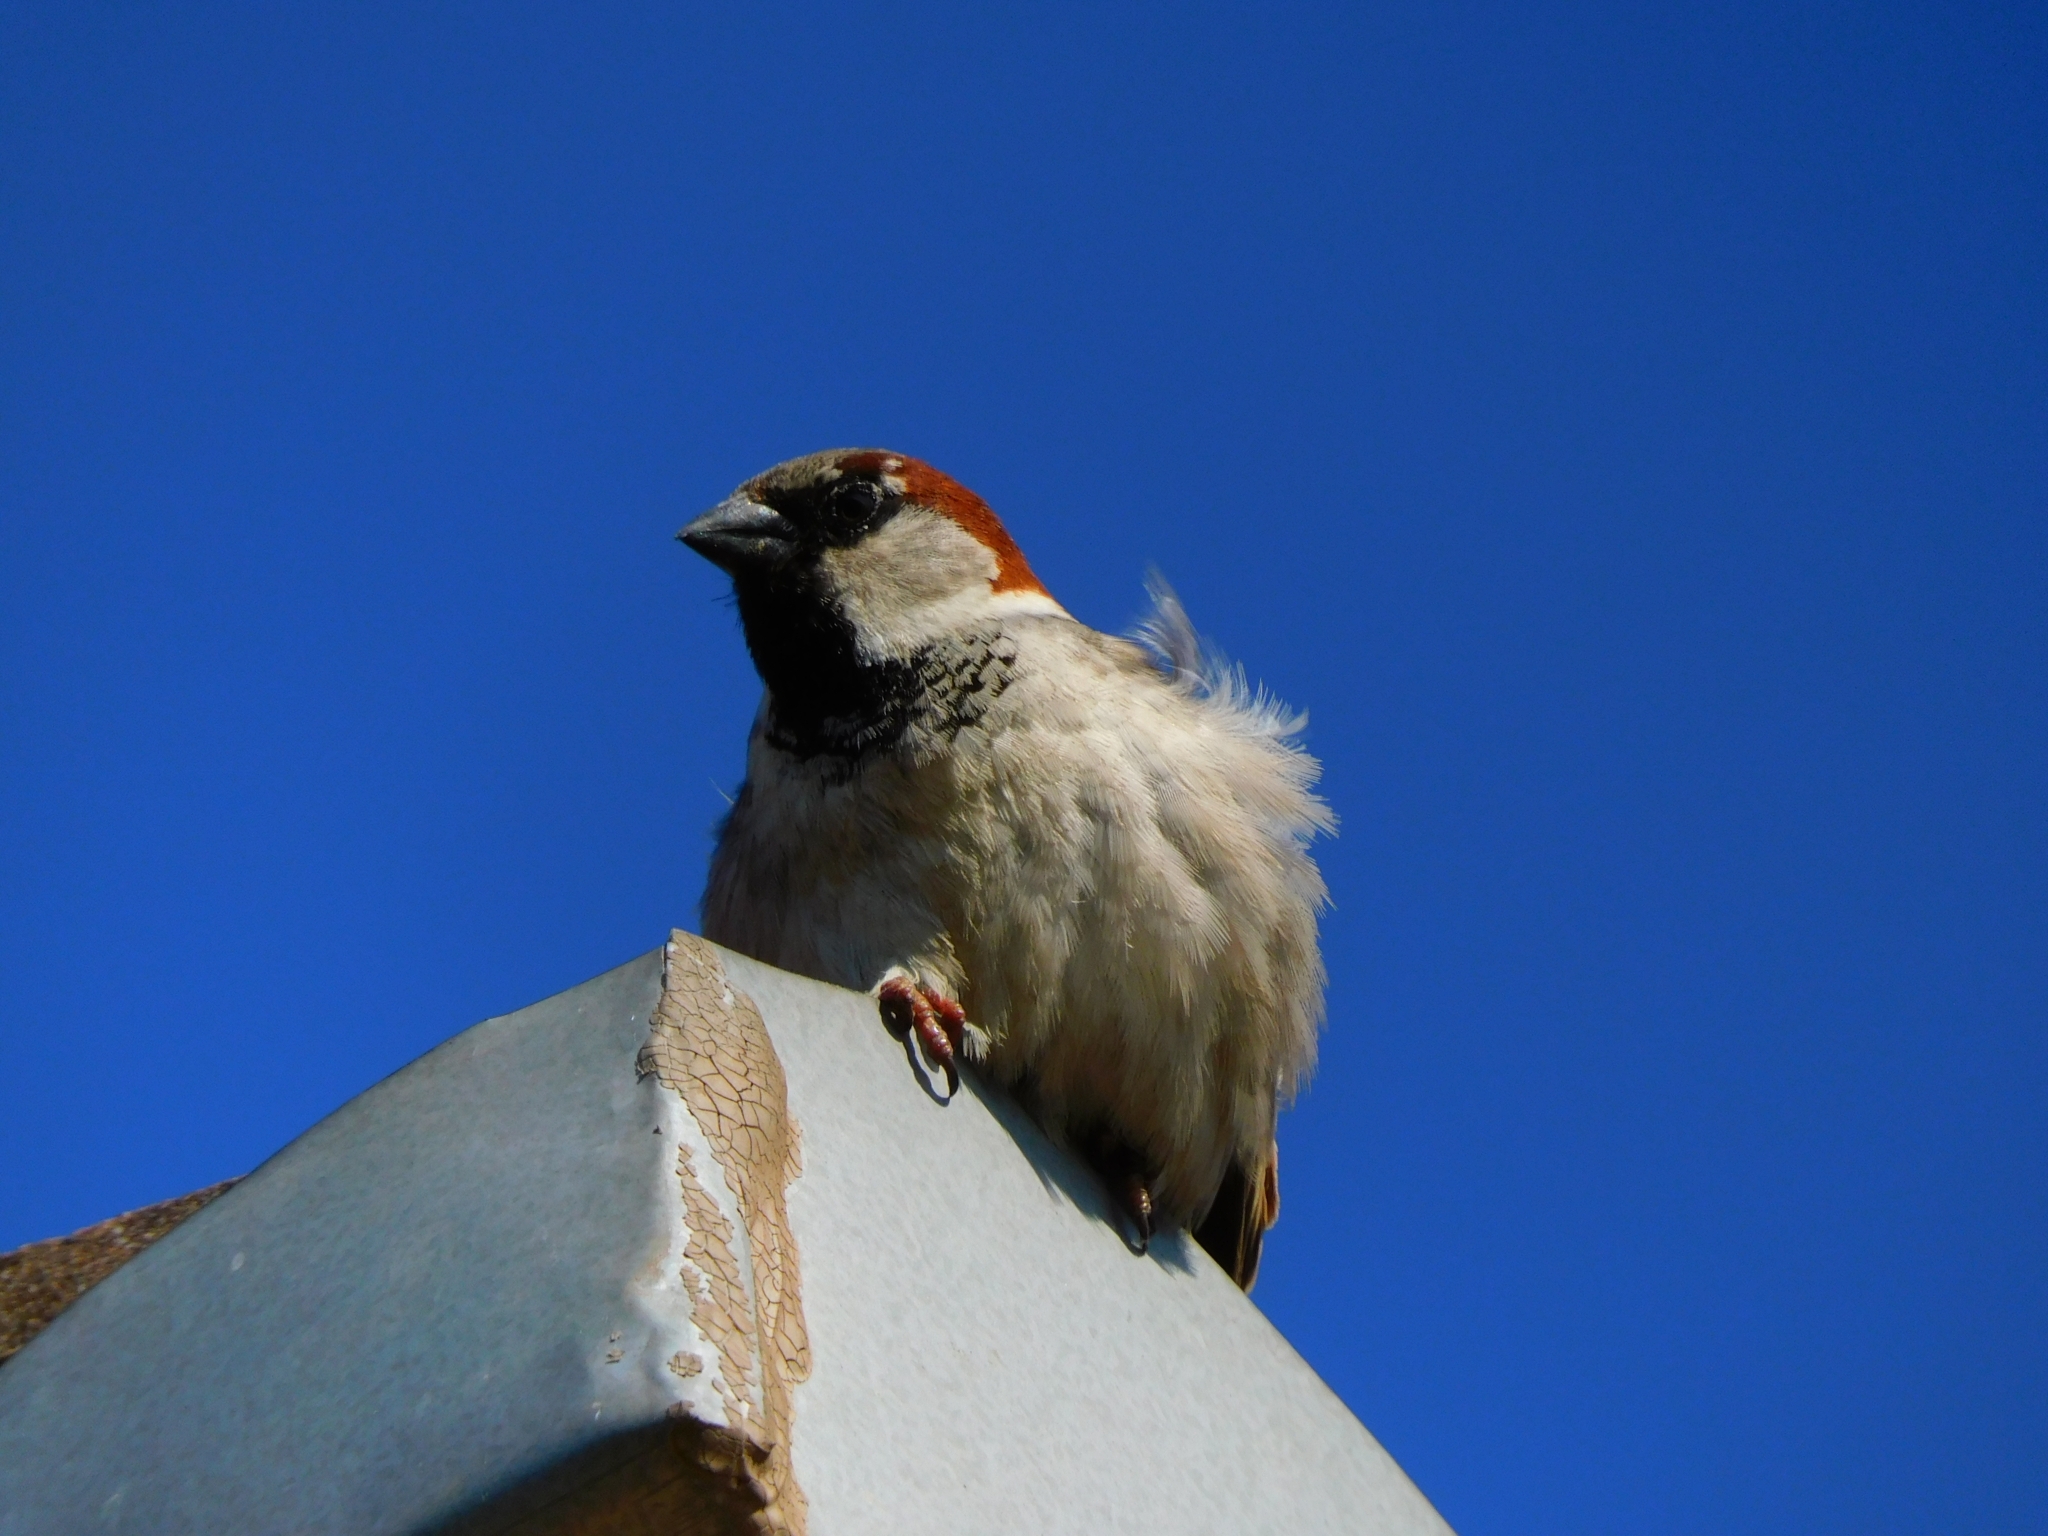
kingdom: Animalia
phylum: Chordata
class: Aves
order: Passeriformes
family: Passeridae
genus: Passer
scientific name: Passer domesticus
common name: House sparrow
